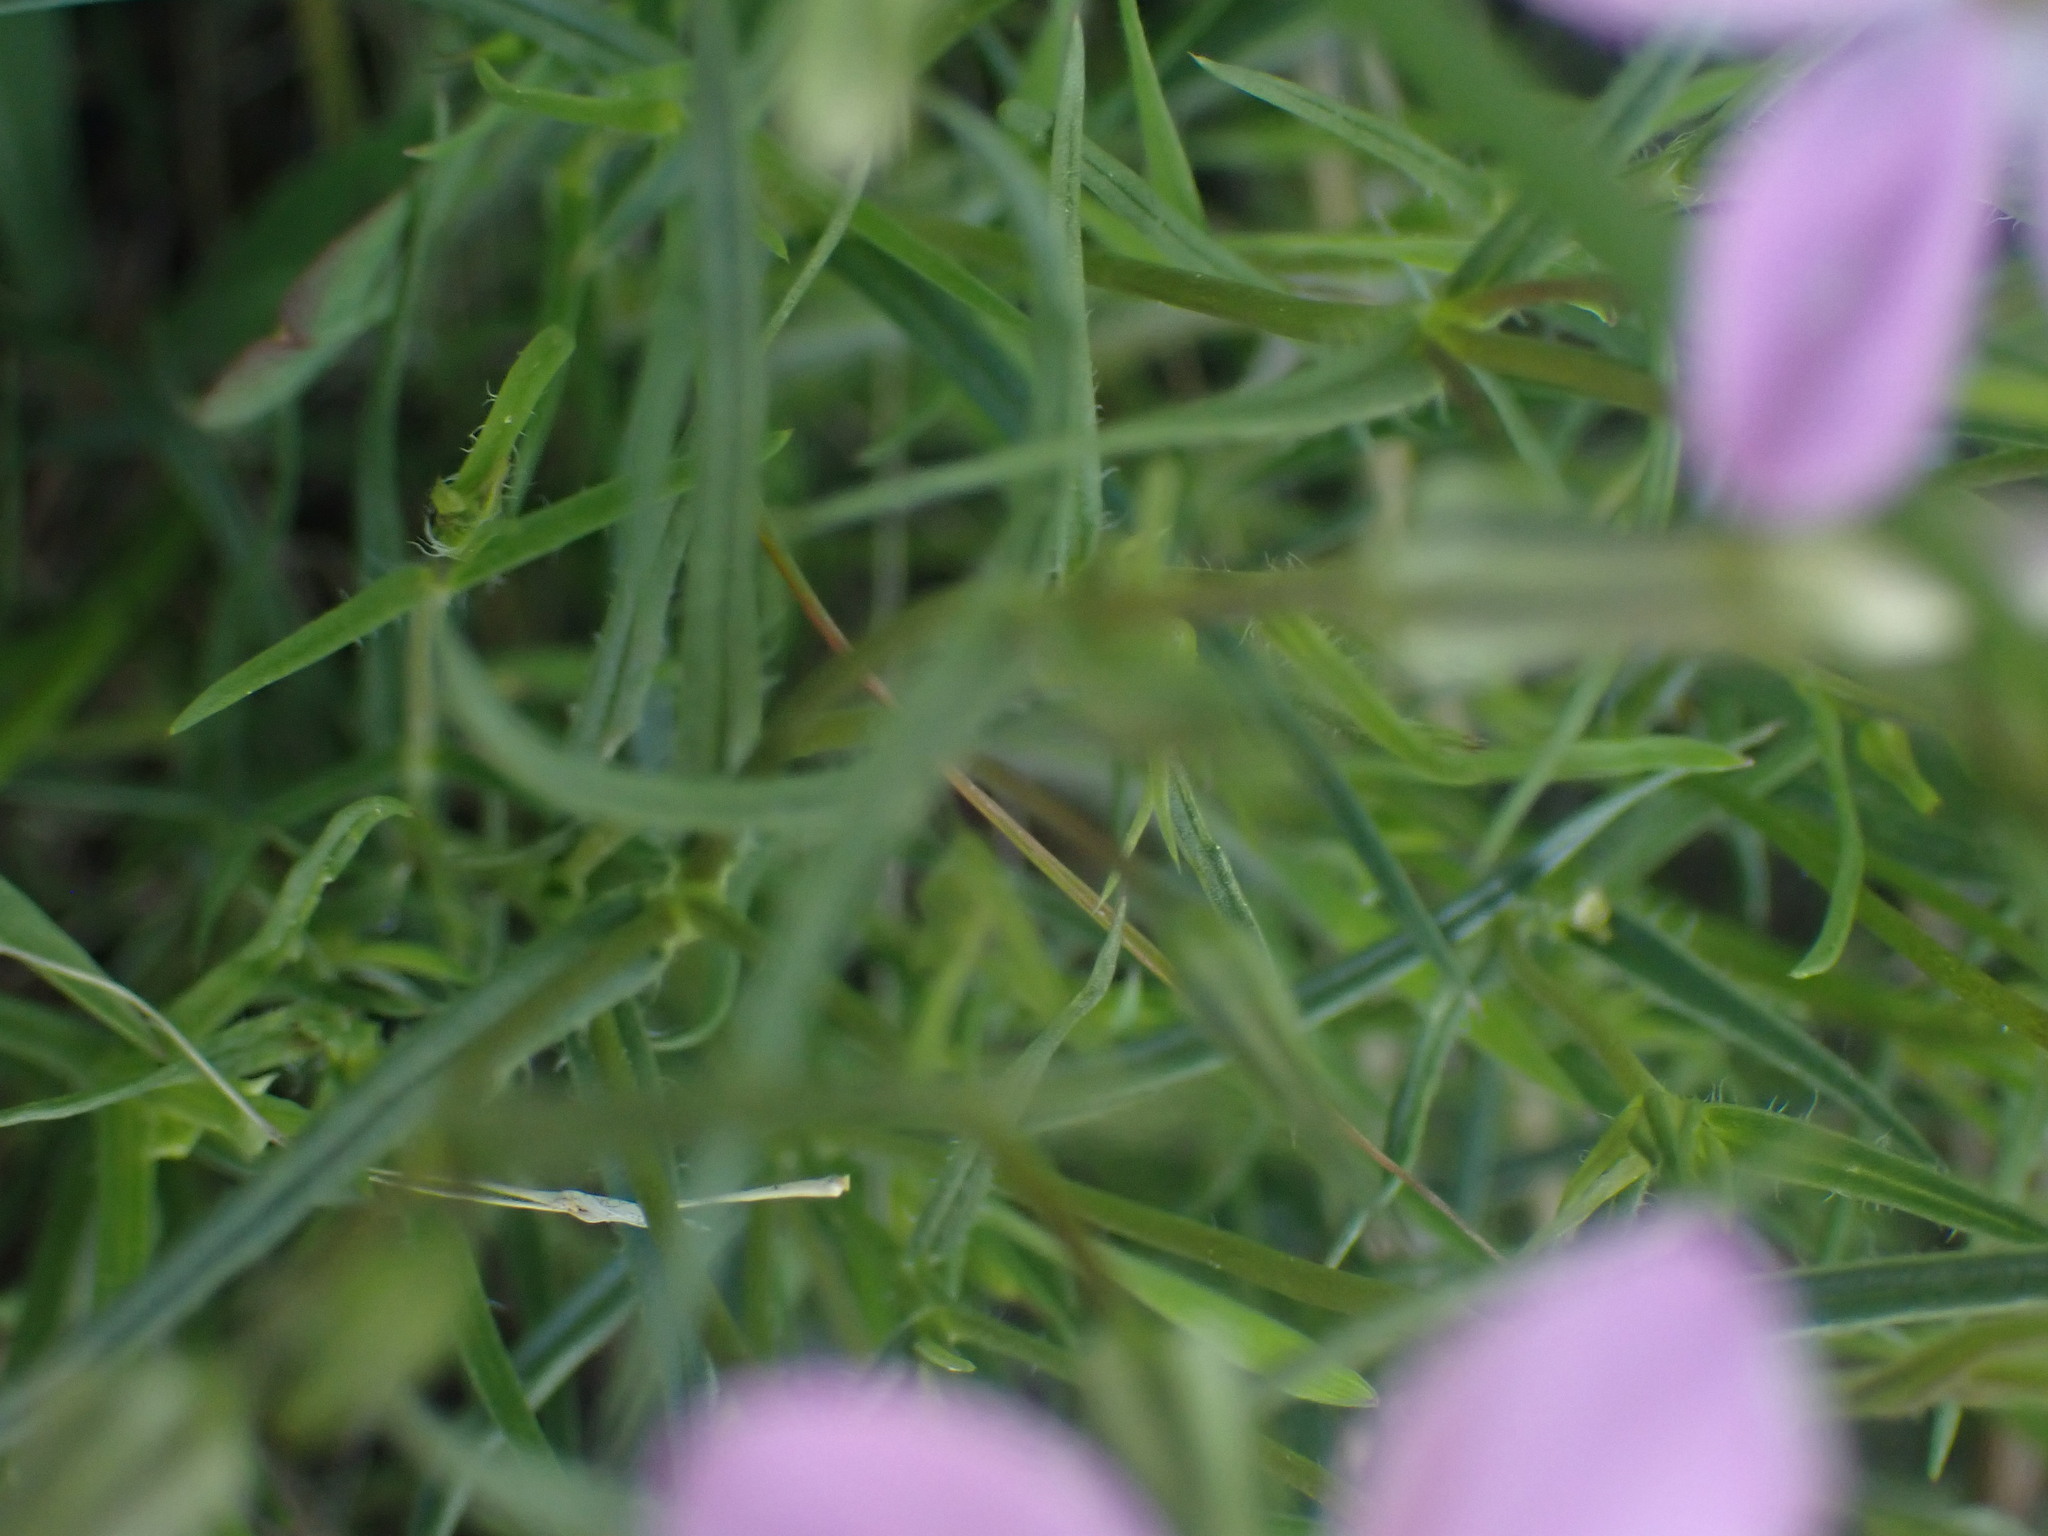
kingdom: Plantae
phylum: Tracheophyta
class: Magnoliopsida
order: Ericales
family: Polemoniaceae
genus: Phlox
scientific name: Phlox longifolia
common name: Longleaf phlox
